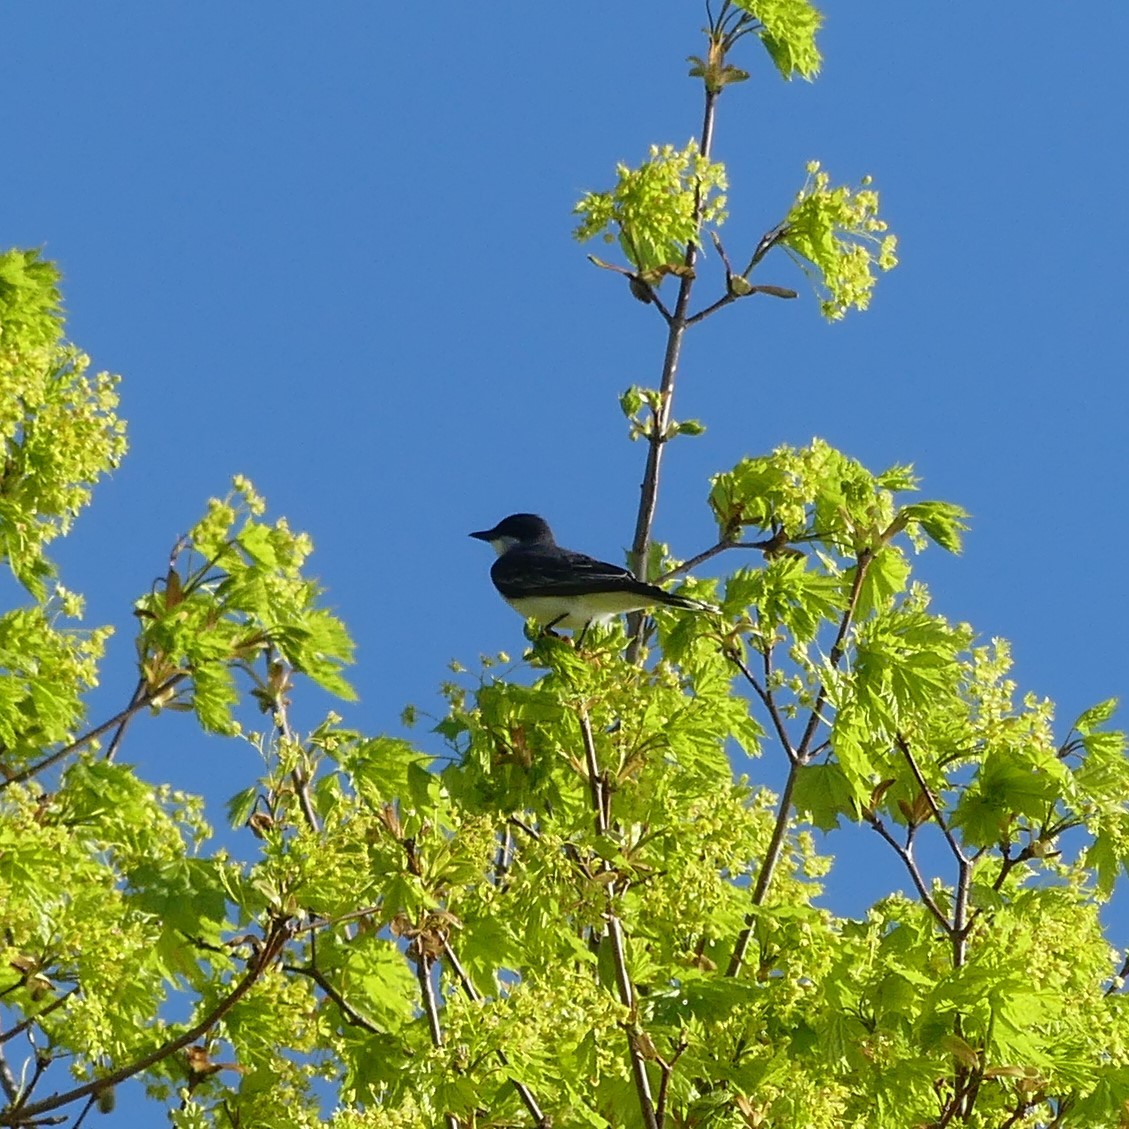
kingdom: Animalia
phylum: Chordata
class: Aves
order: Passeriformes
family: Tyrannidae
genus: Tyrannus
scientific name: Tyrannus tyrannus
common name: Eastern kingbird
